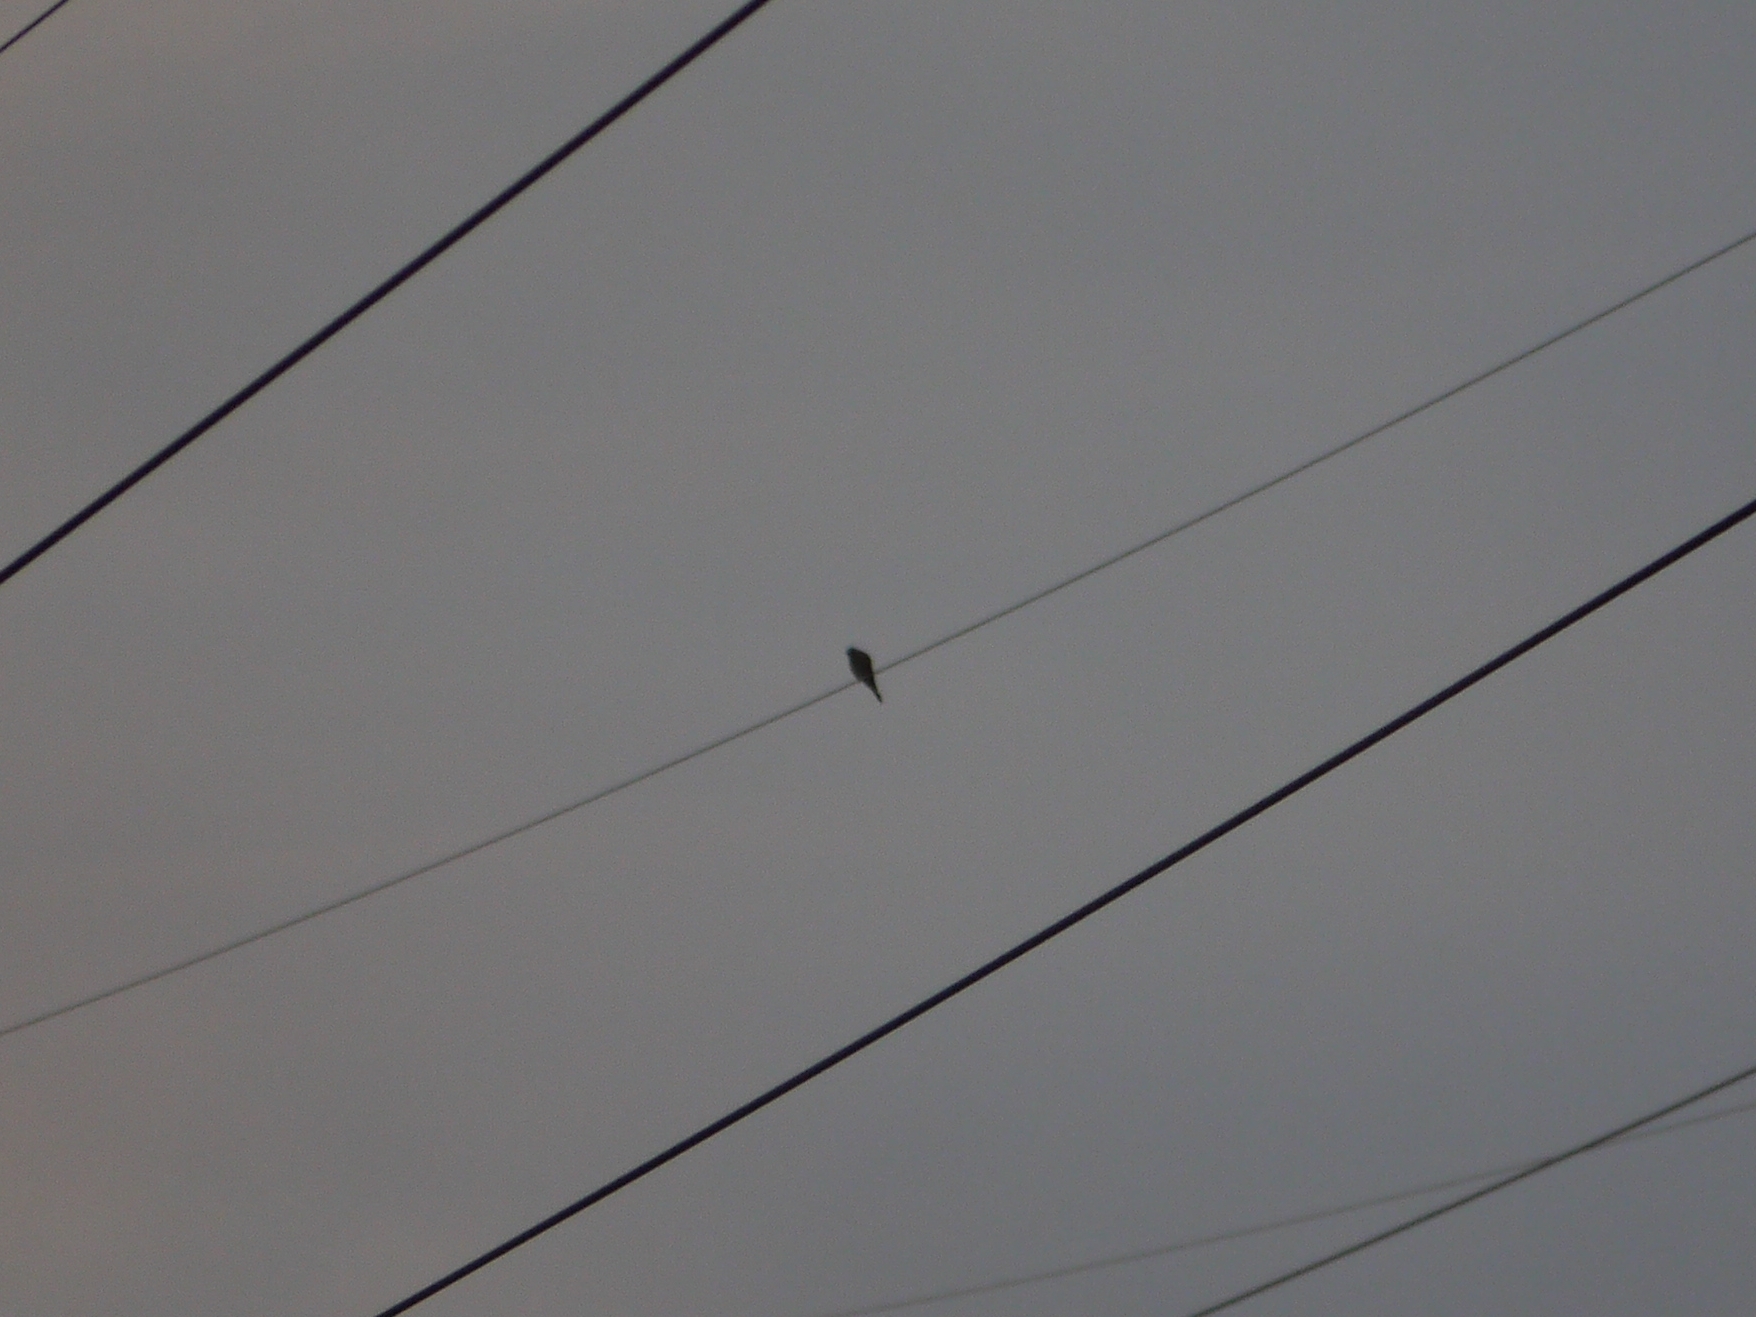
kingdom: Animalia
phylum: Chordata
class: Aves
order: Falconiformes
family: Falconidae
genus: Falco
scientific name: Falco tinnunculus
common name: Common kestrel
